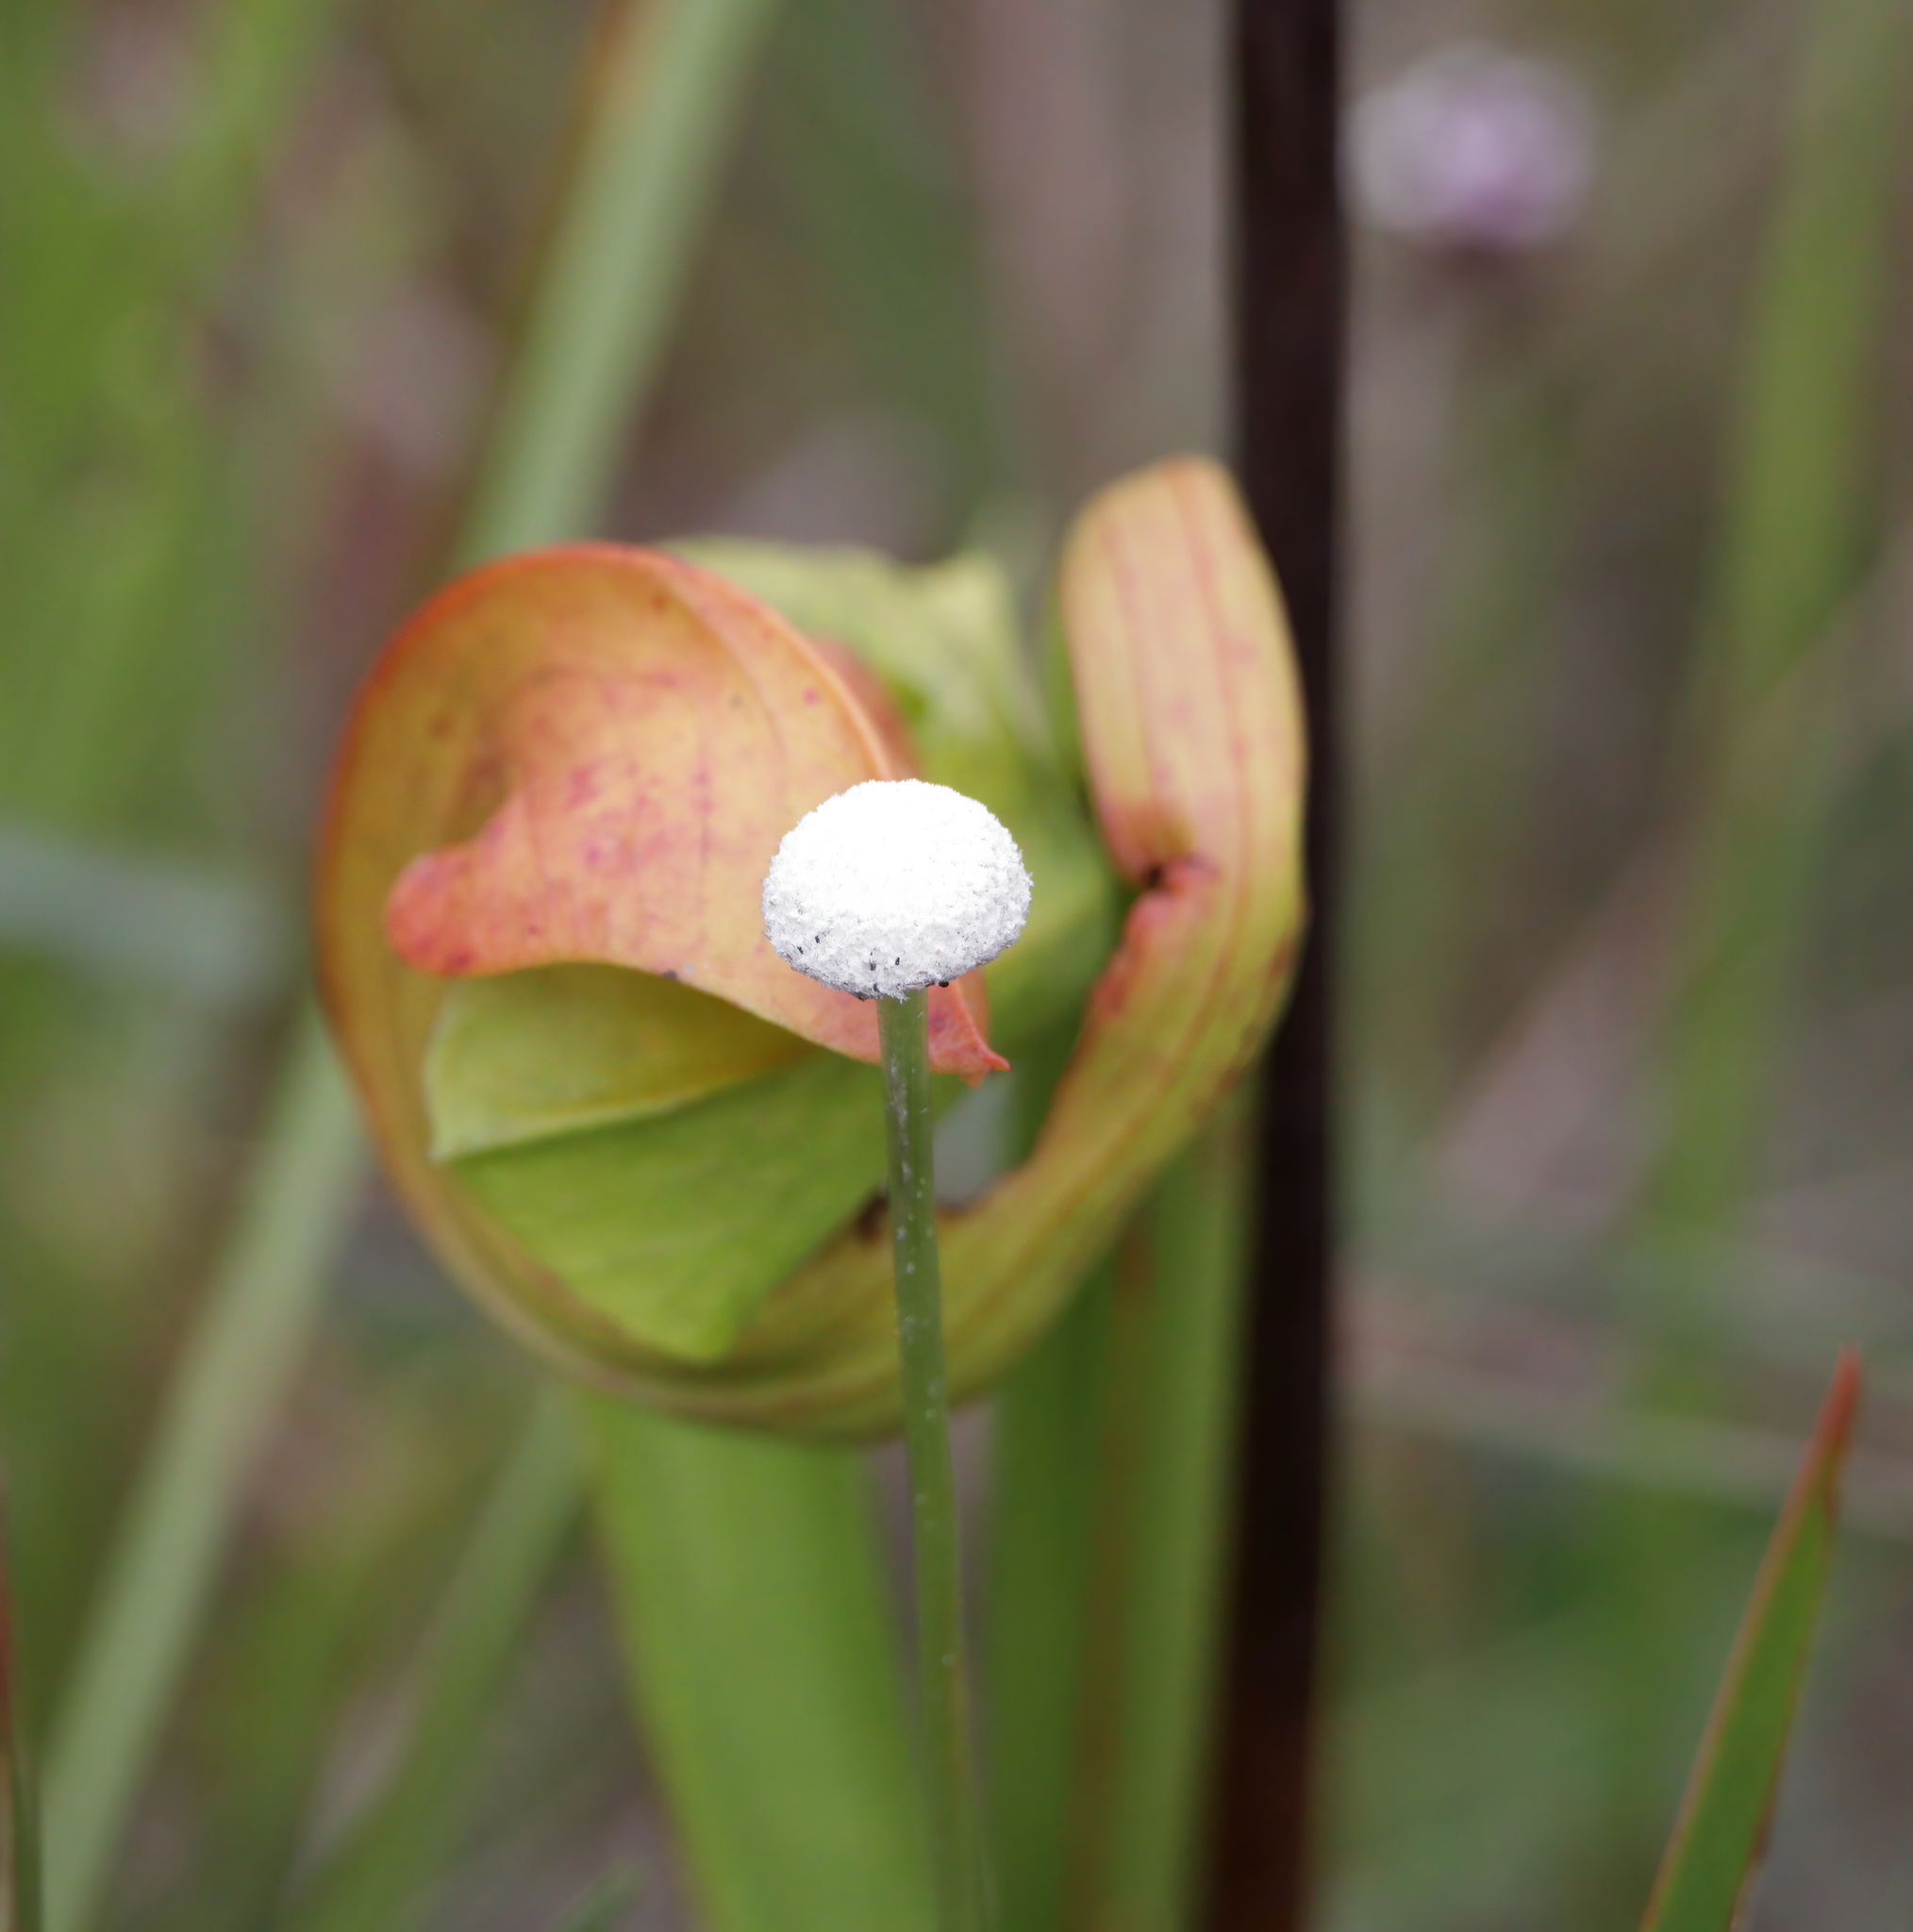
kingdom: Plantae
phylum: Tracheophyta
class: Liliopsida
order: Poales
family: Eriocaulaceae
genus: Eriocaulon
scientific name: Eriocaulon decangulare
